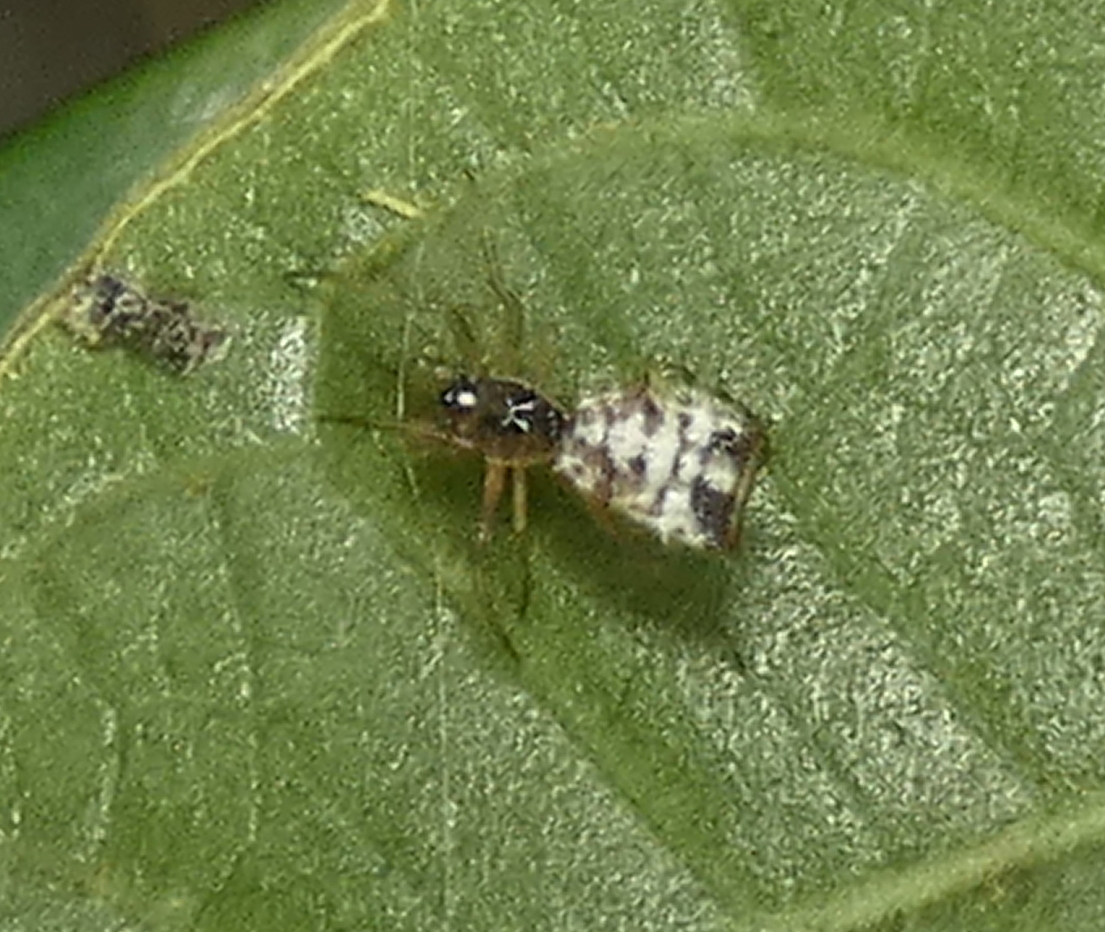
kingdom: Animalia
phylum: Arthropoda
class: Arachnida
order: Araneae
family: Araneidae
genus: Micrathena
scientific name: Micrathena picta
